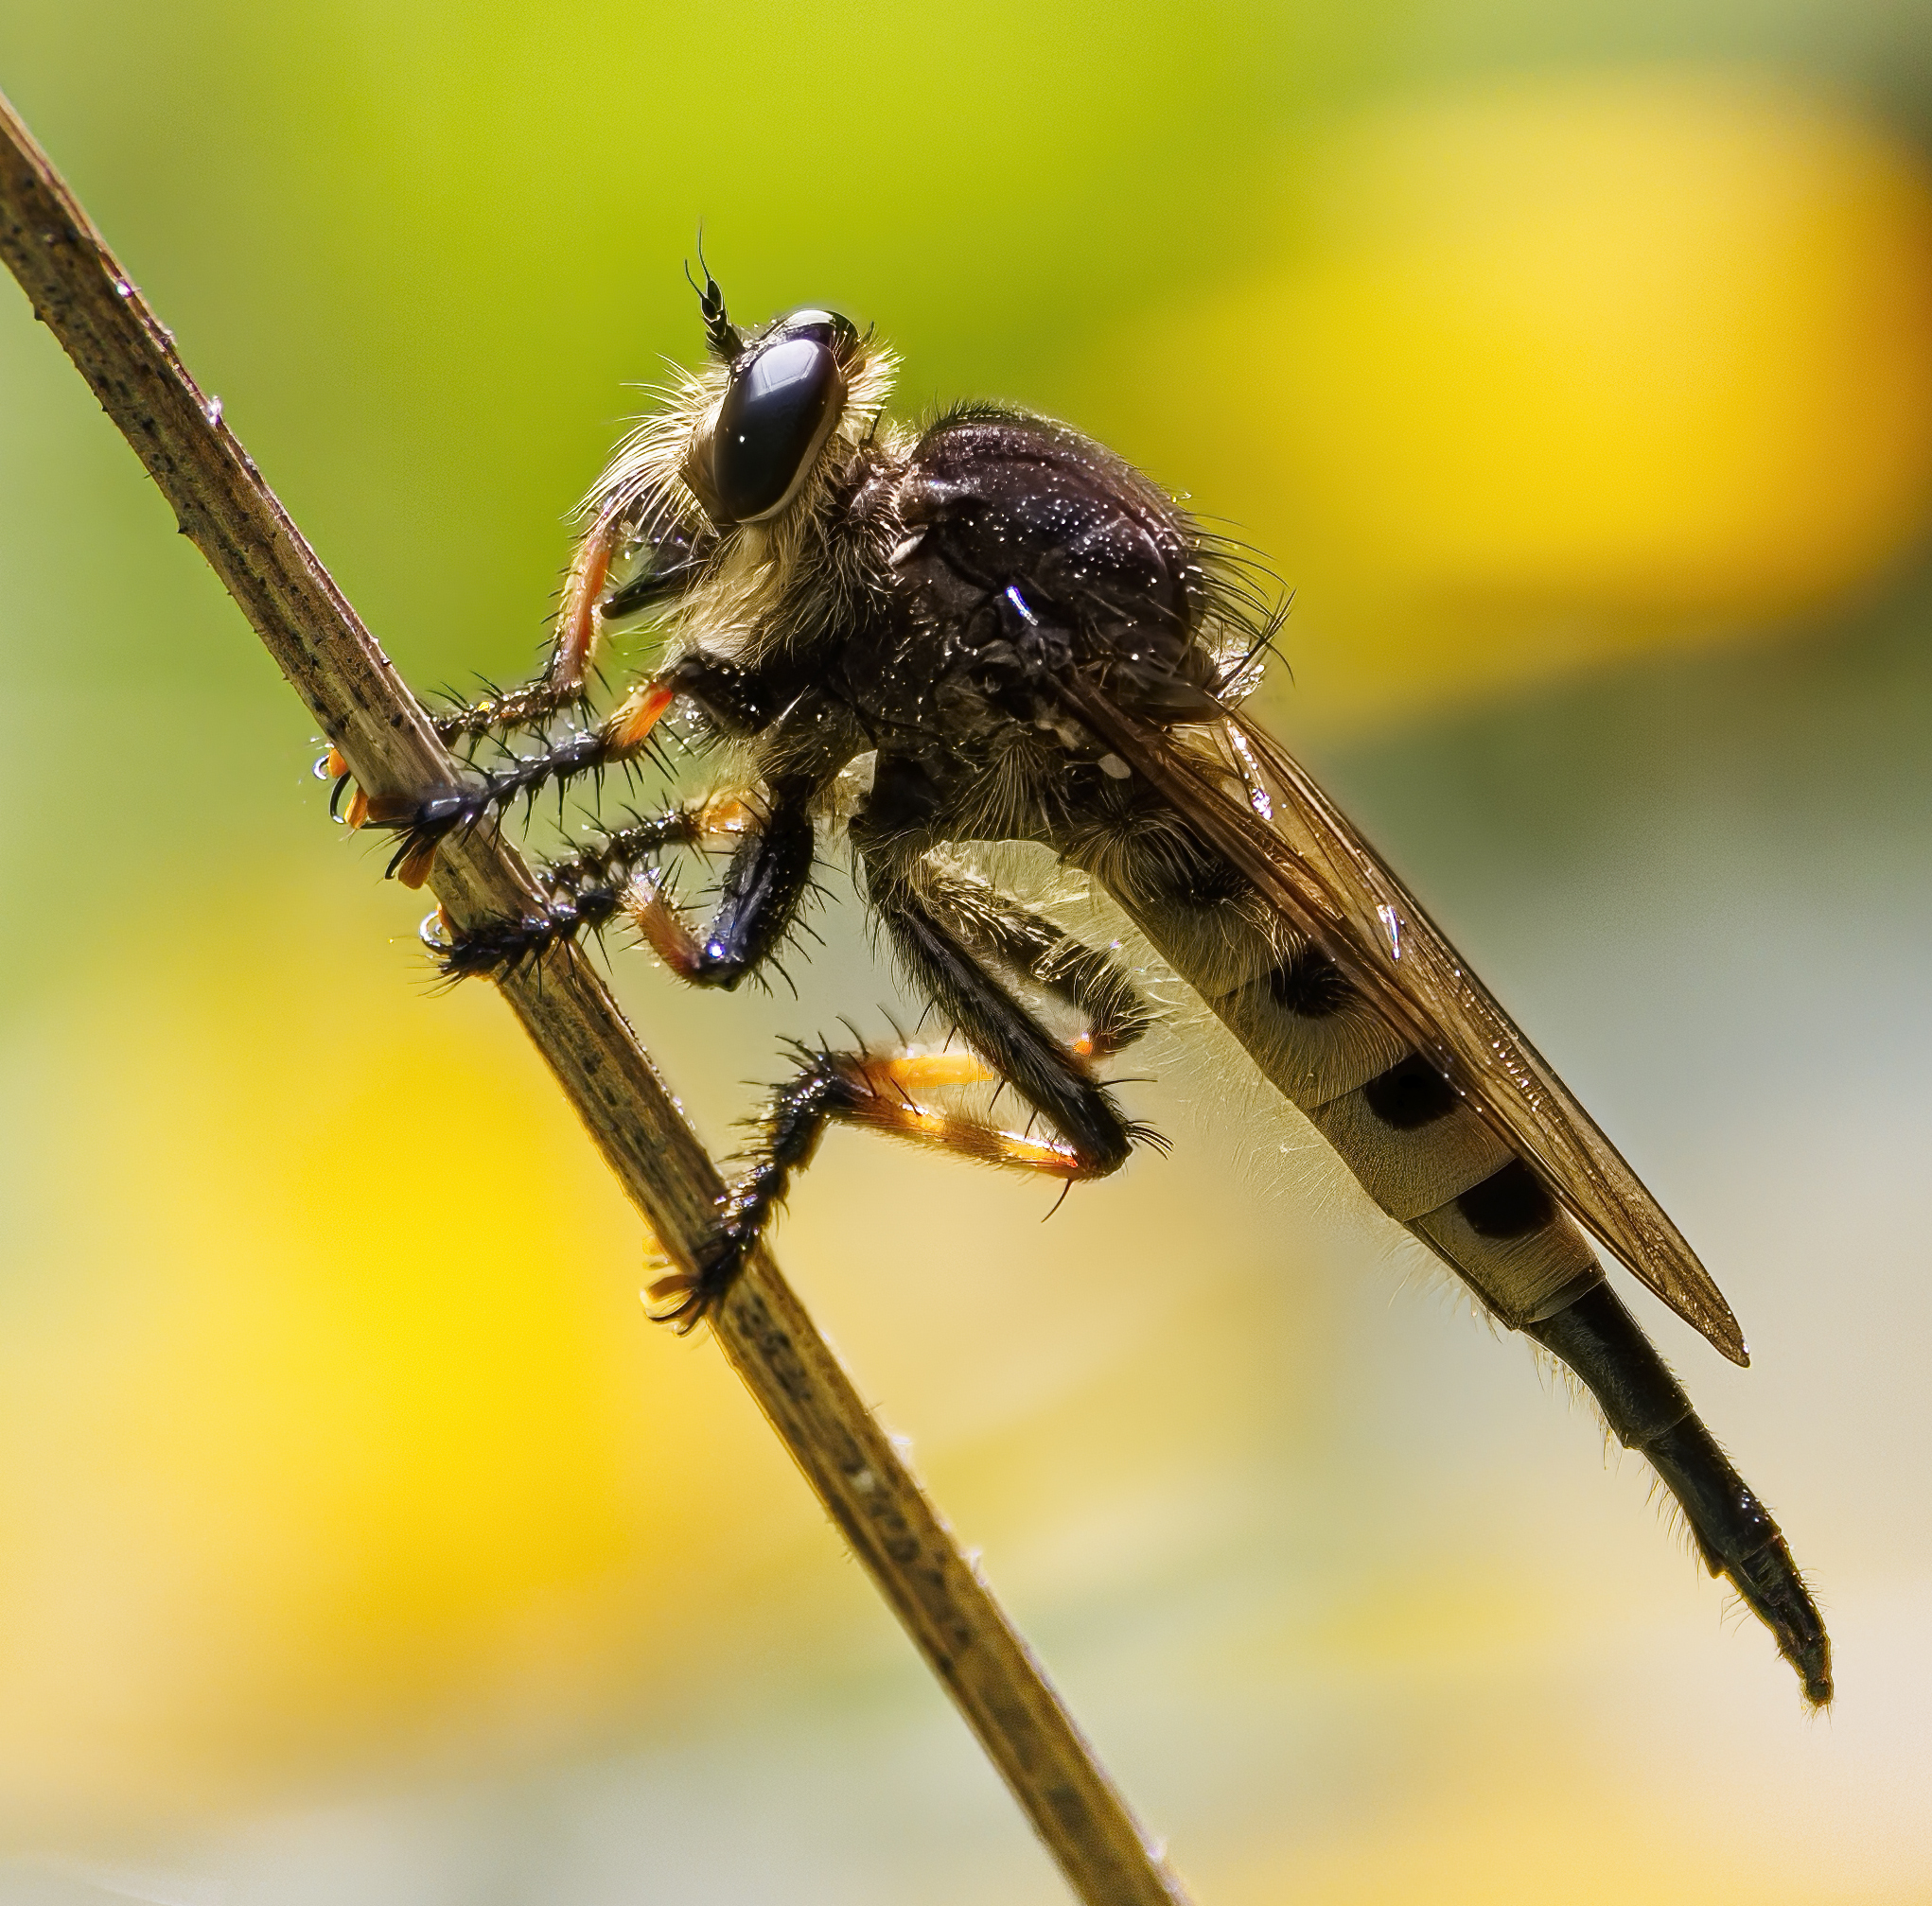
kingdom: Animalia
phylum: Arthropoda
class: Insecta
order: Diptera
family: Asilidae
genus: Promachus
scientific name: Promachus rufipes
